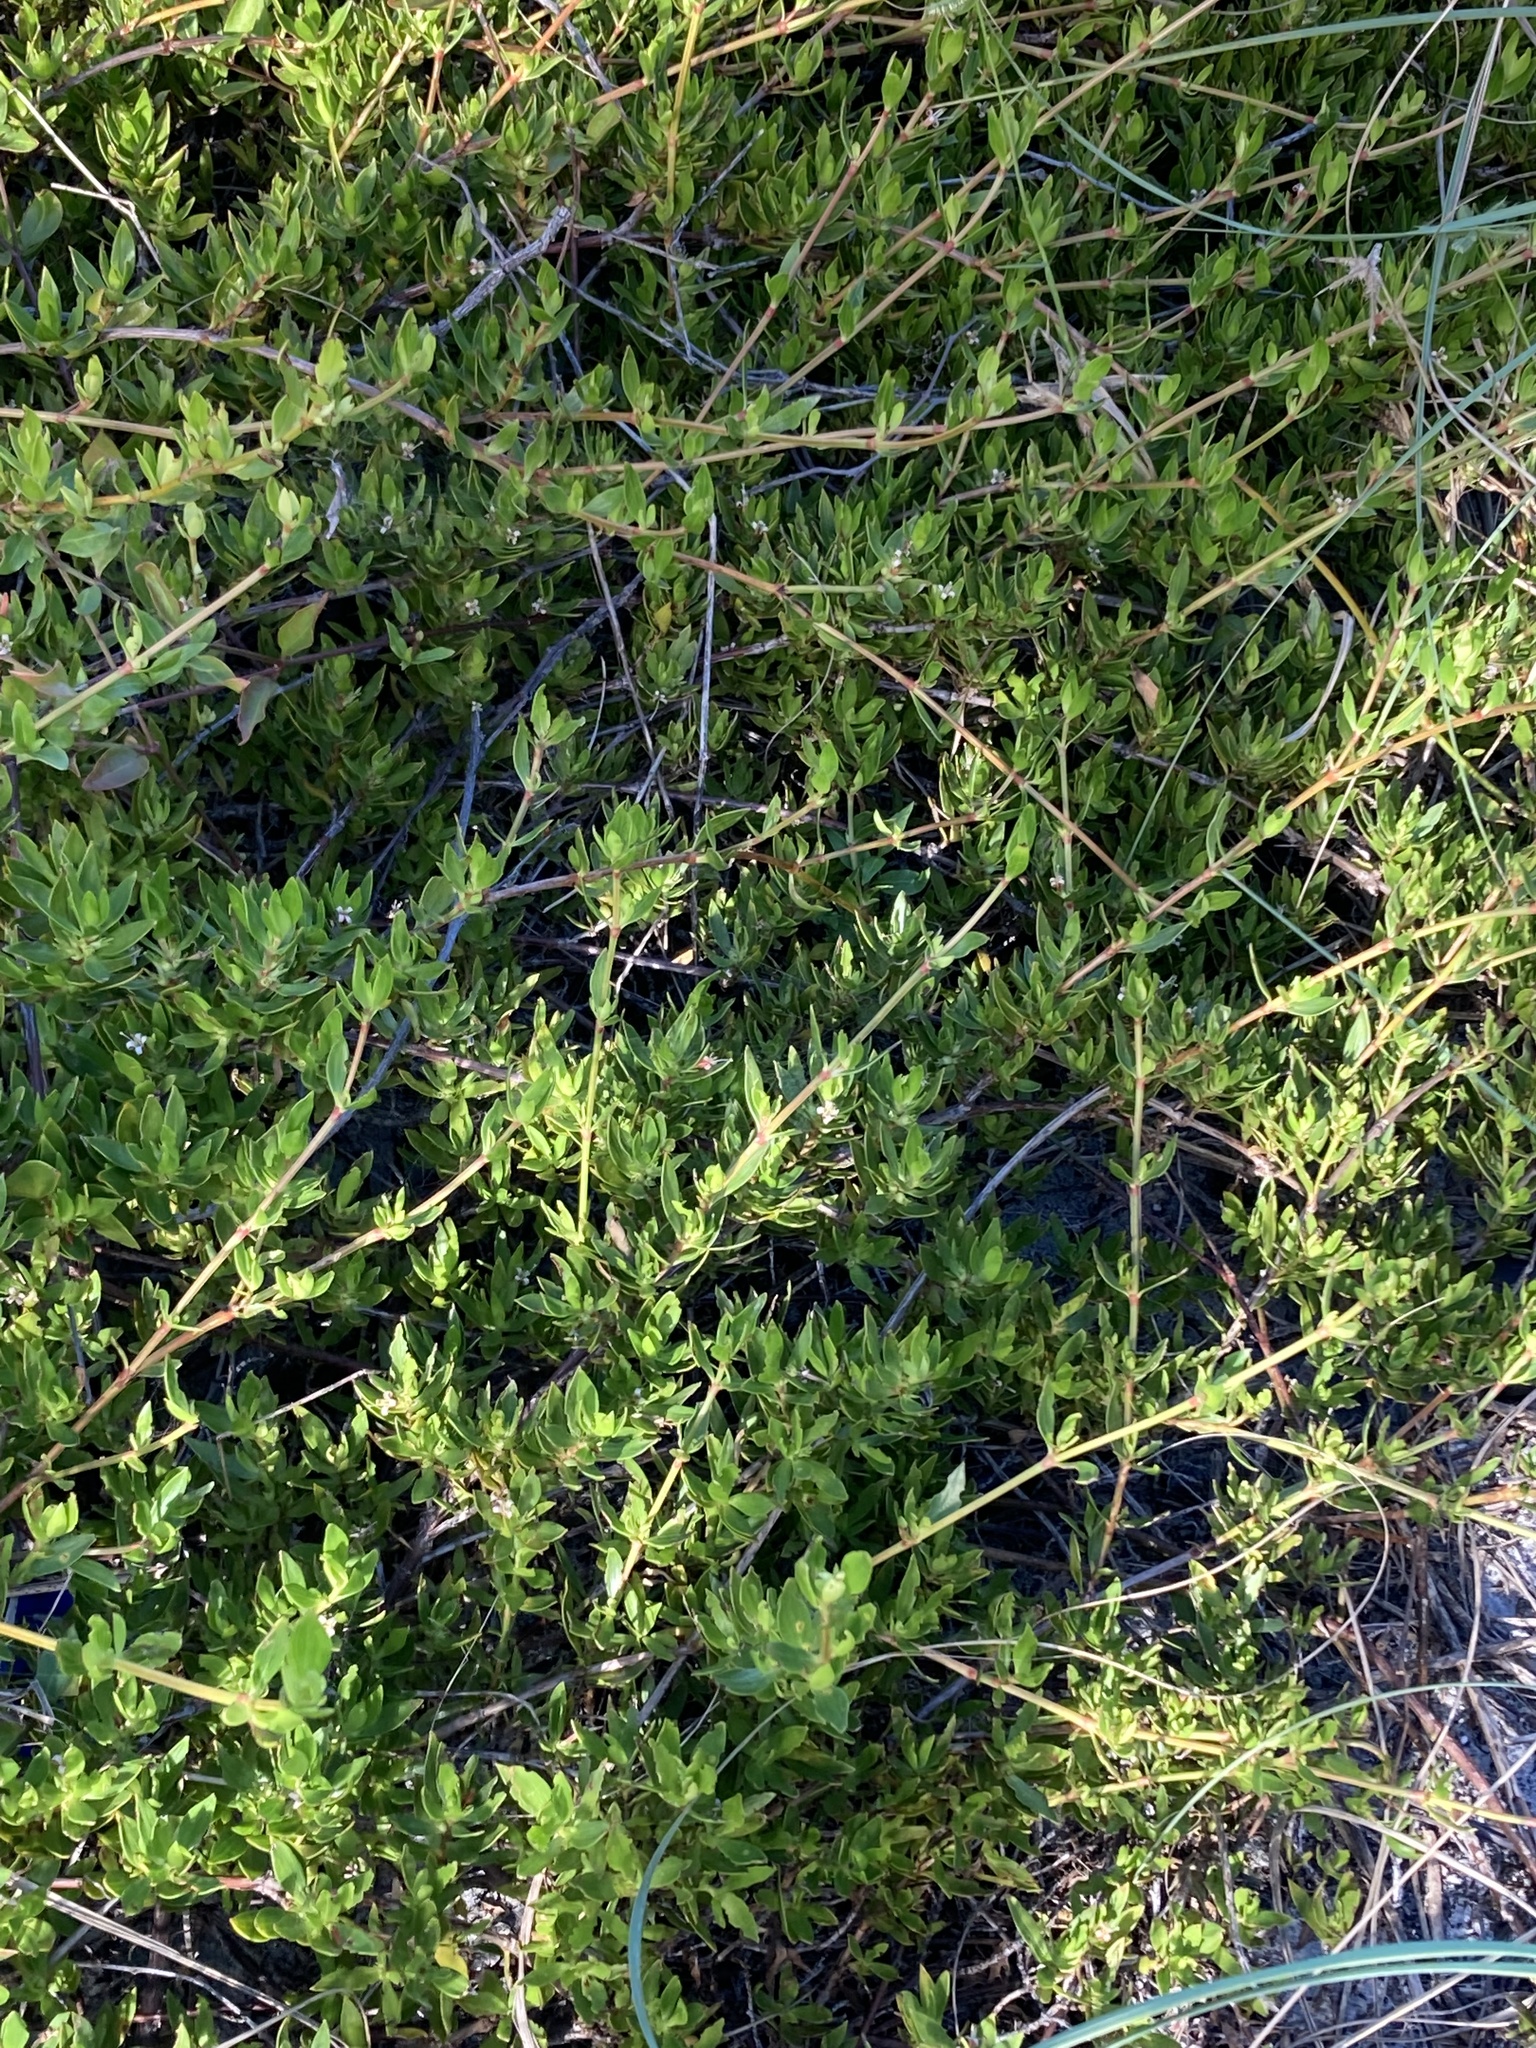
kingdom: Plantae
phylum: Tracheophyta
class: Magnoliopsida
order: Gentianales
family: Rubiaceae
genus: Ernodea
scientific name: Ernodea littoralis
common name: Beach creeper
